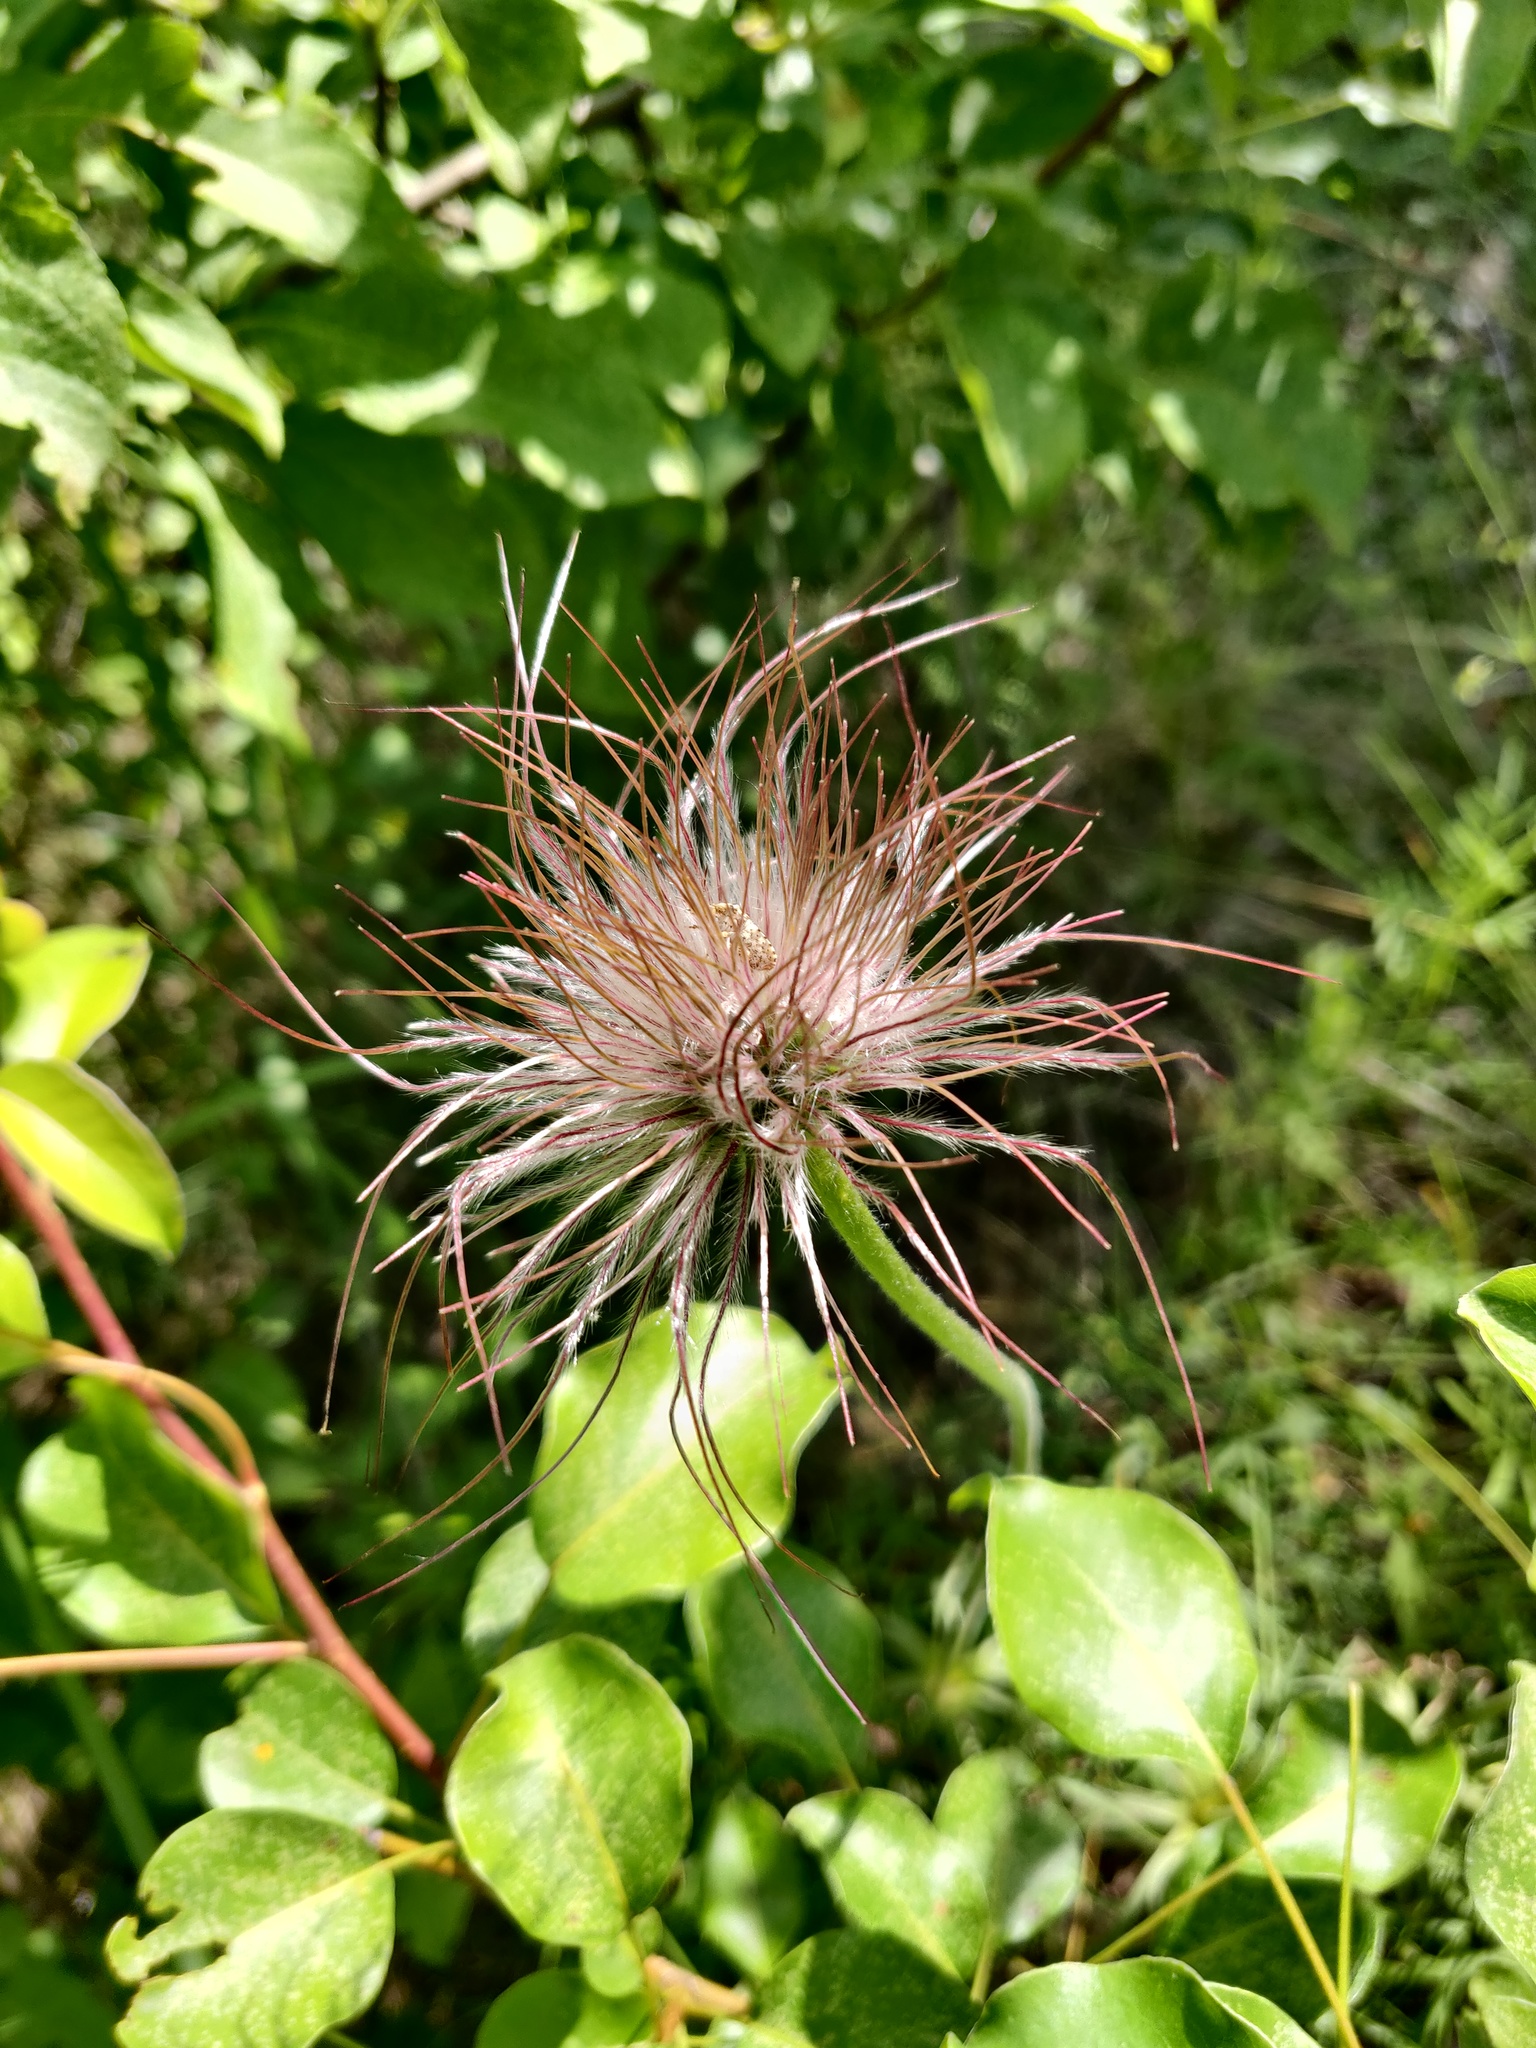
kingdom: Plantae
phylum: Tracheophyta
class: Magnoliopsida
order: Ranunculales
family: Ranunculaceae
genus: Pulsatilla
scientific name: Pulsatilla pratensis
